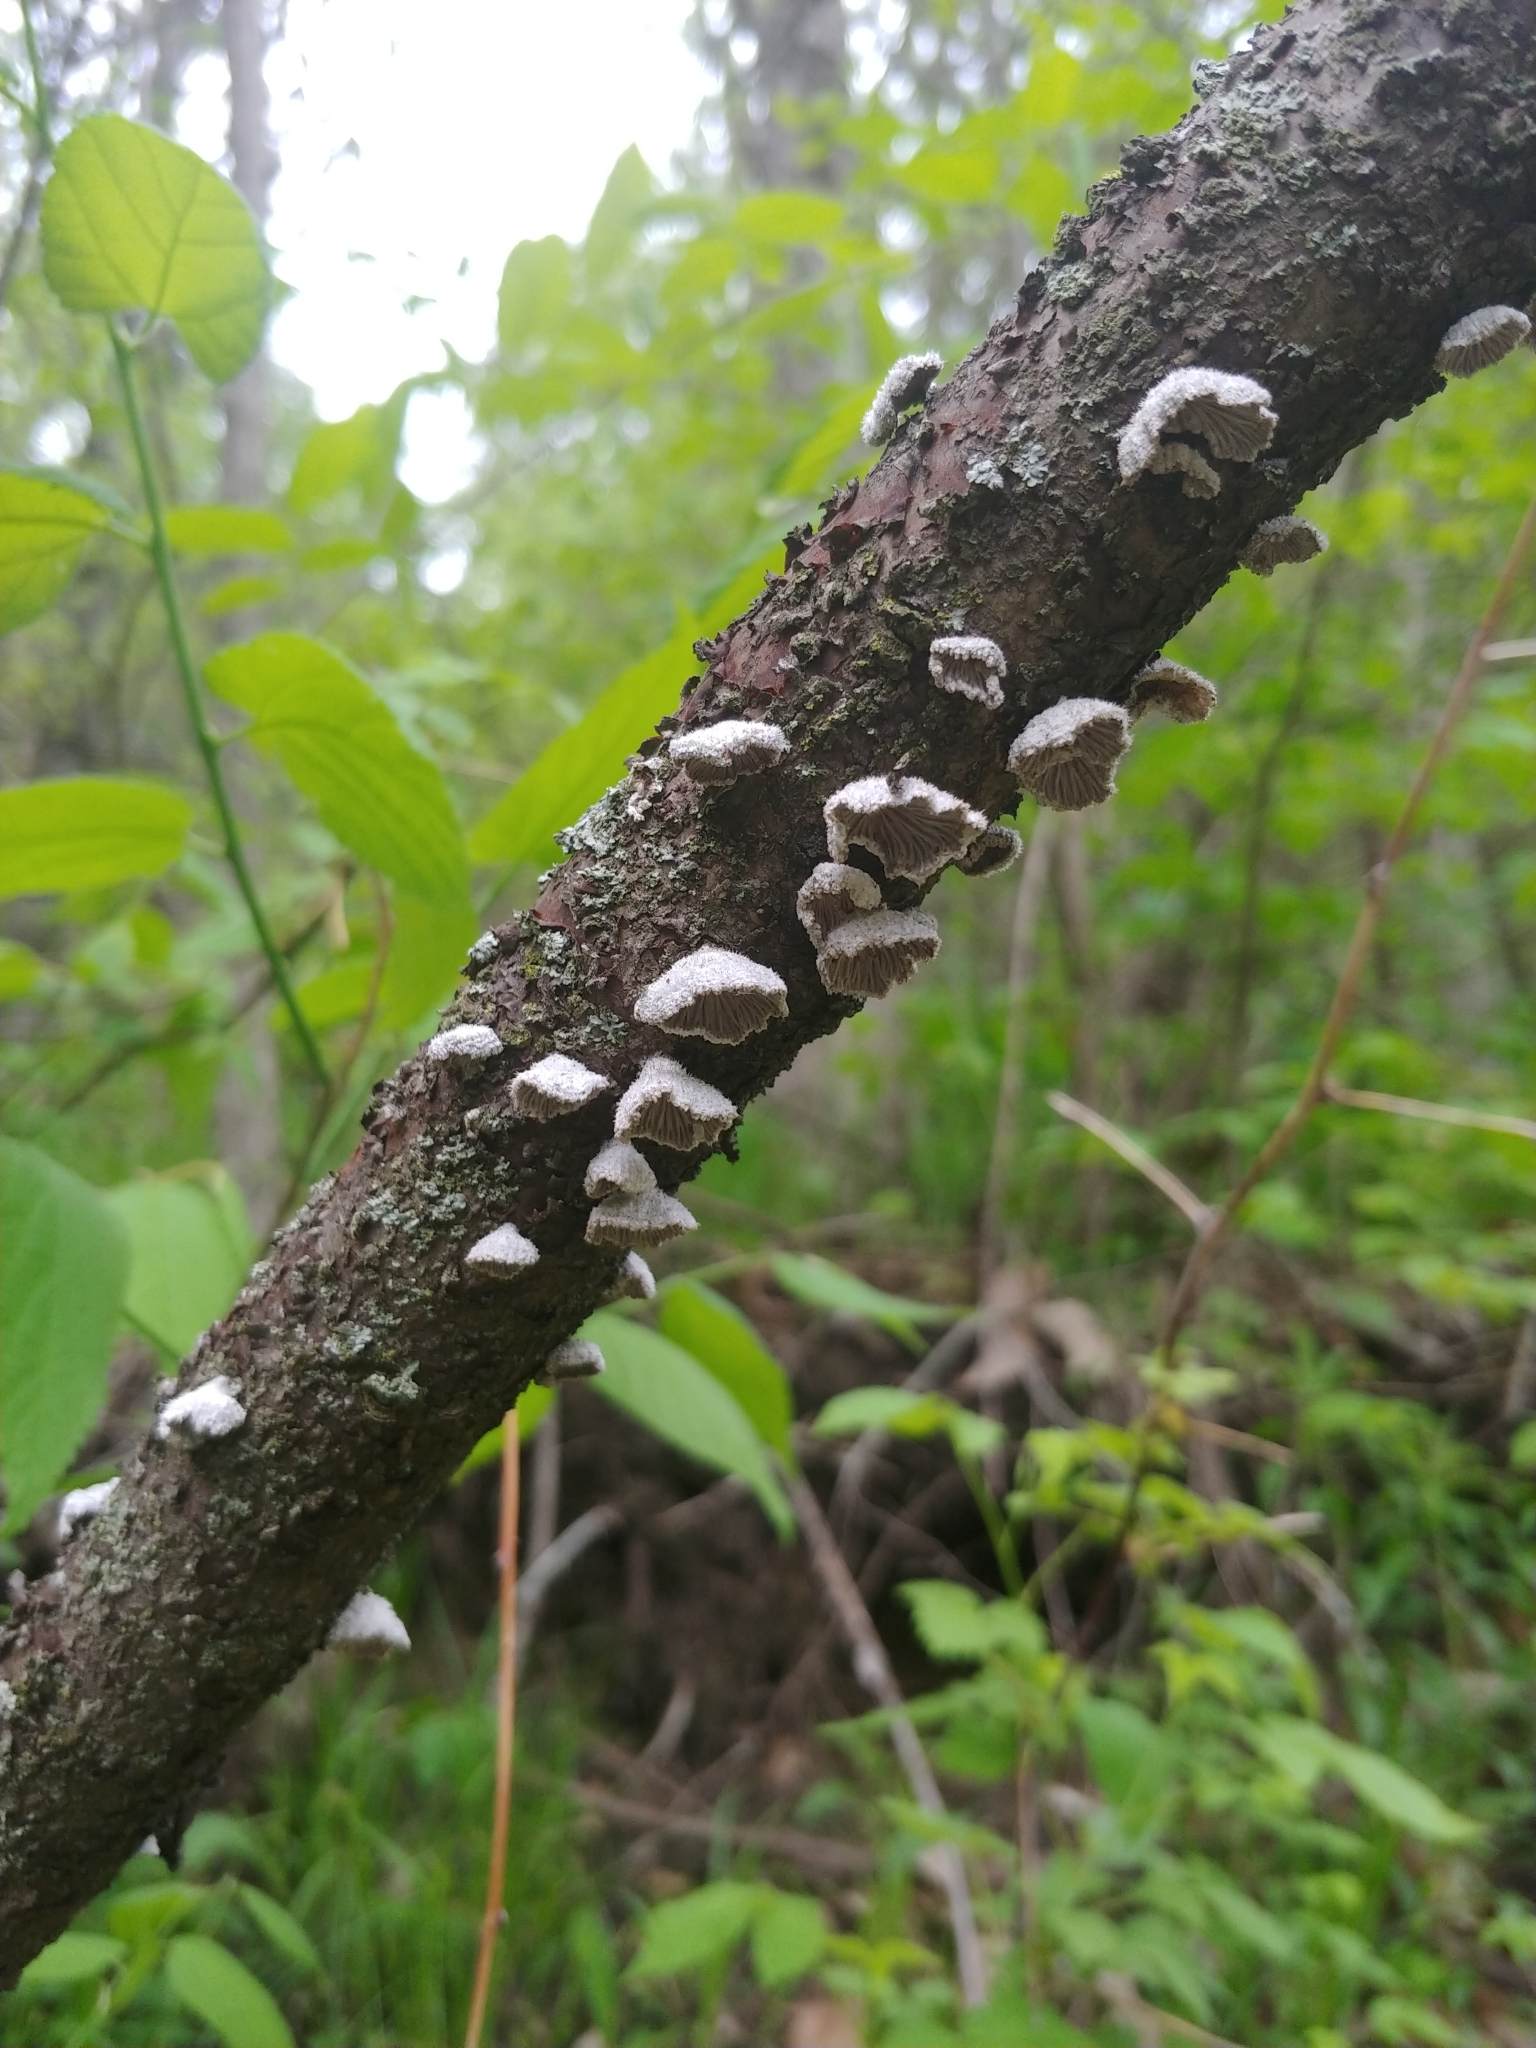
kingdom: Fungi
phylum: Basidiomycota
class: Agaricomycetes
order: Agaricales
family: Schizophyllaceae
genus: Schizophyllum
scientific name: Schizophyllum commune
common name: Common porecrust
